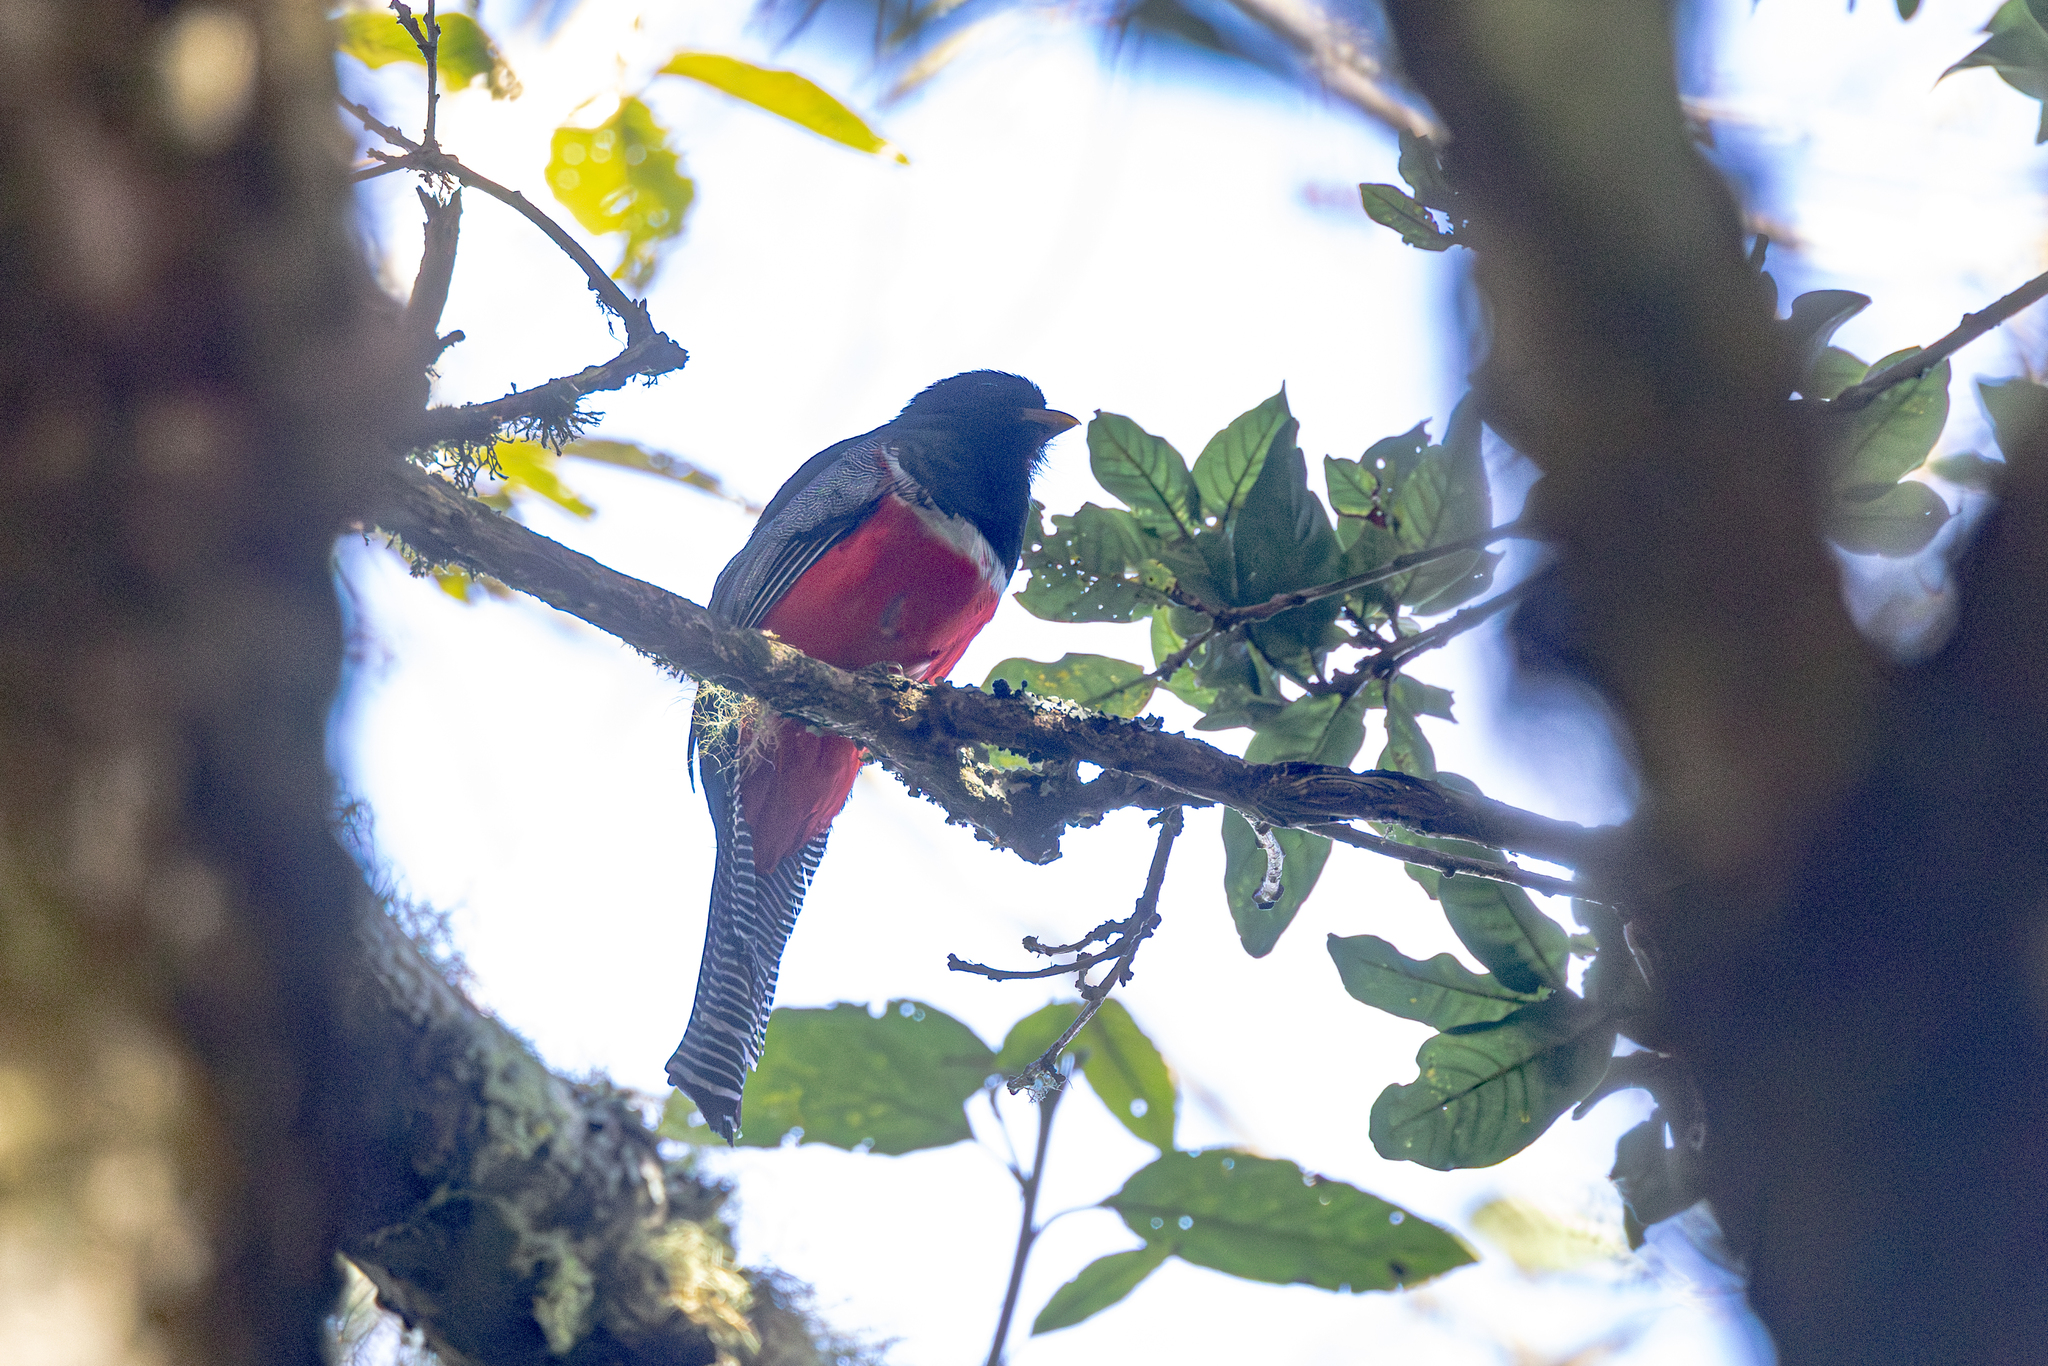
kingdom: Animalia
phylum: Chordata
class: Aves
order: Trogoniformes
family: Trogonidae
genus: Trogon
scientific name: Trogon collaris
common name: Collared trogon
